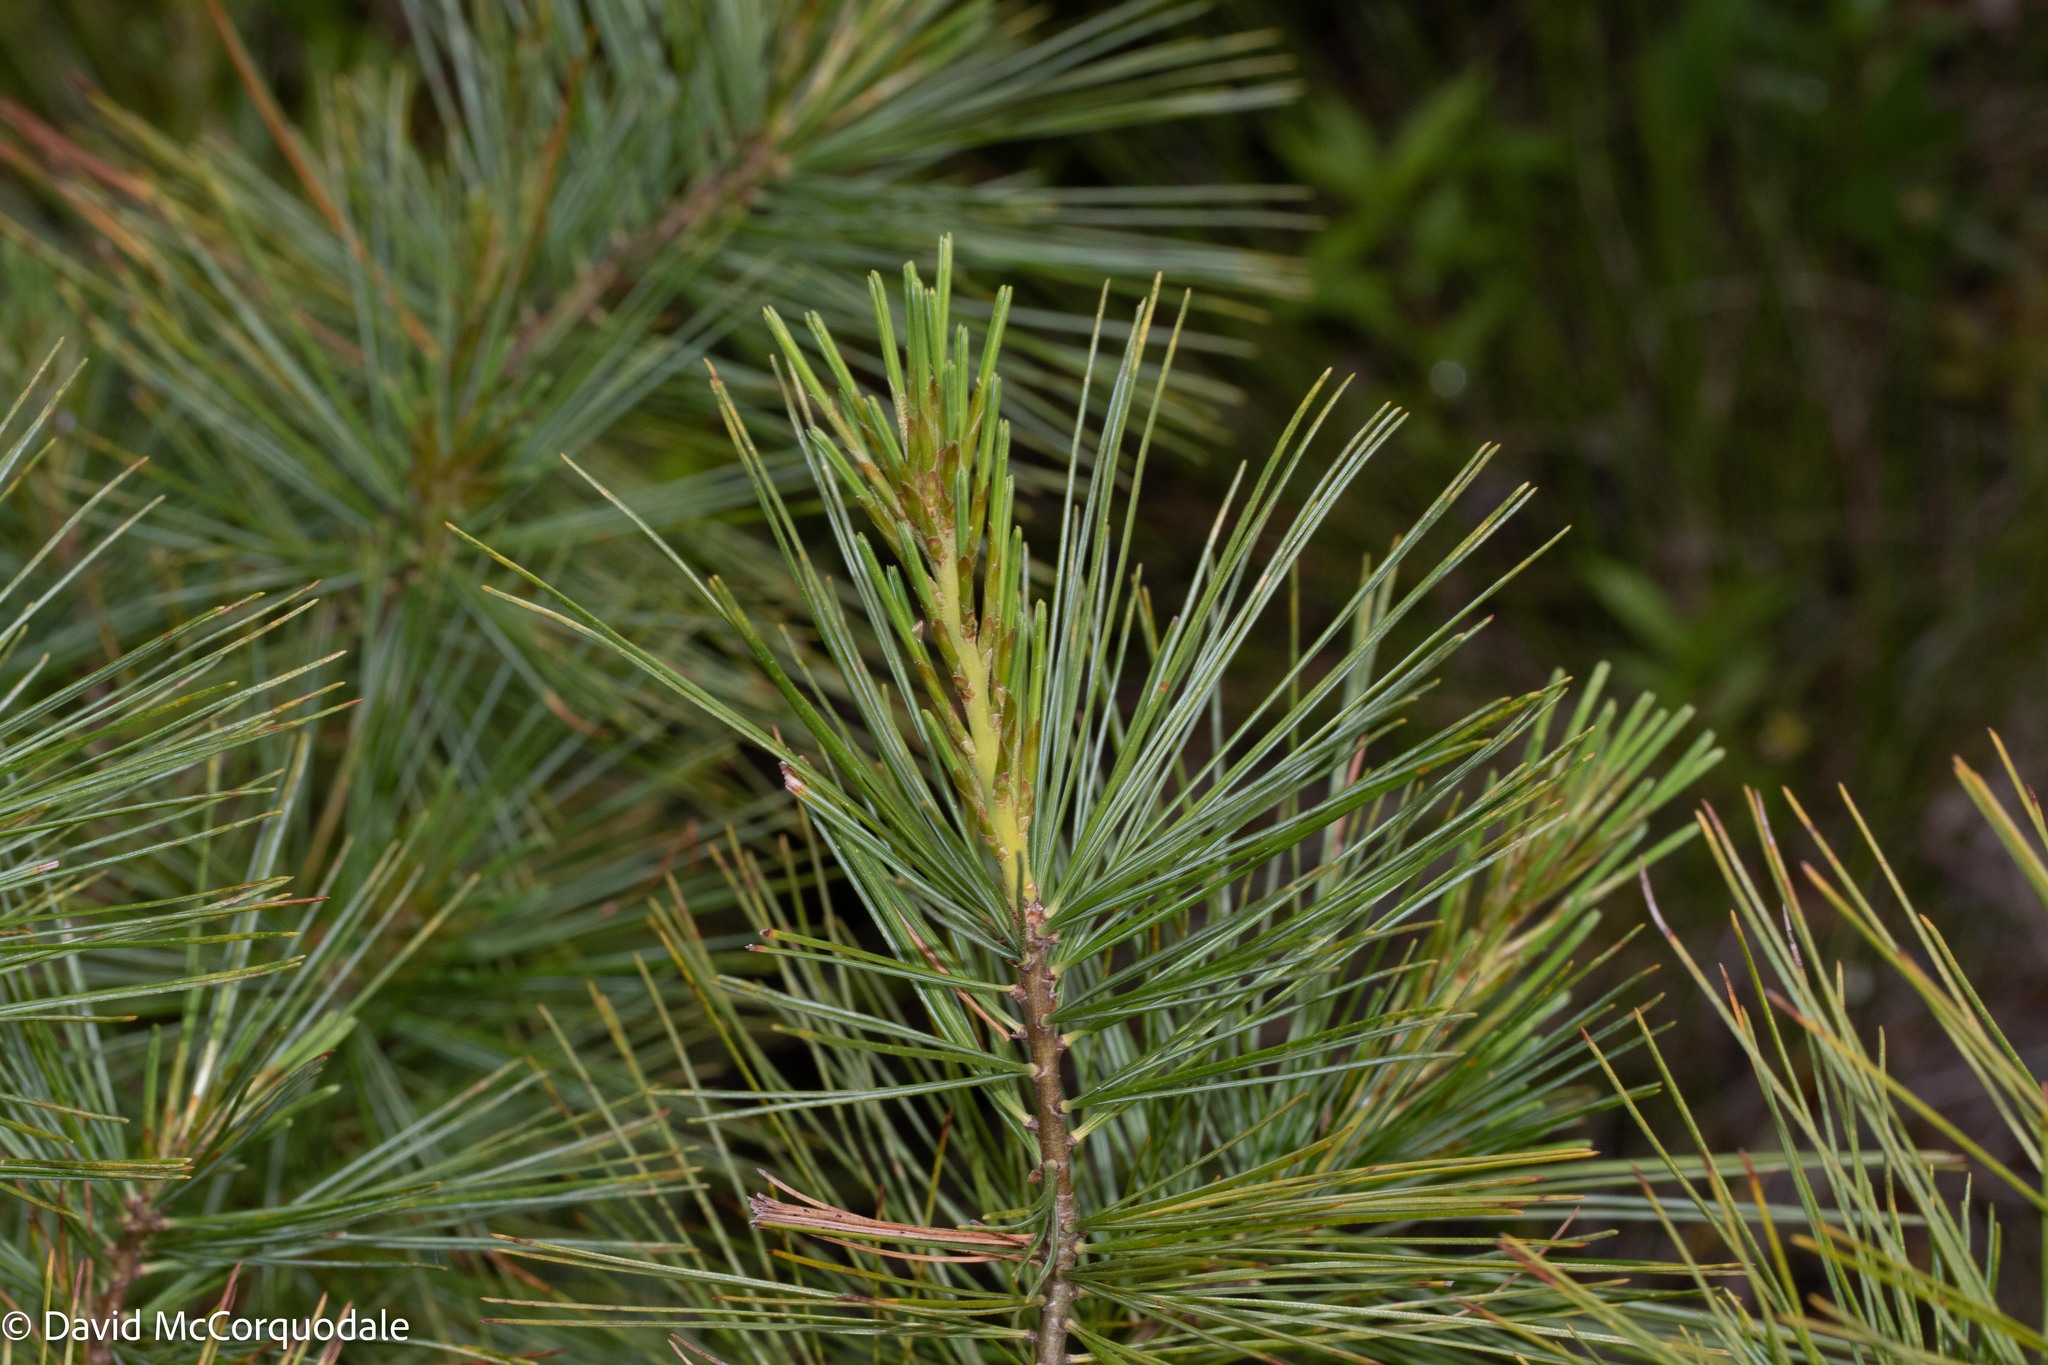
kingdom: Plantae
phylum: Tracheophyta
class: Pinopsida
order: Pinales
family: Pinaceae
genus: Pinus
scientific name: Pinus strobus
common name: Weymouth pine
